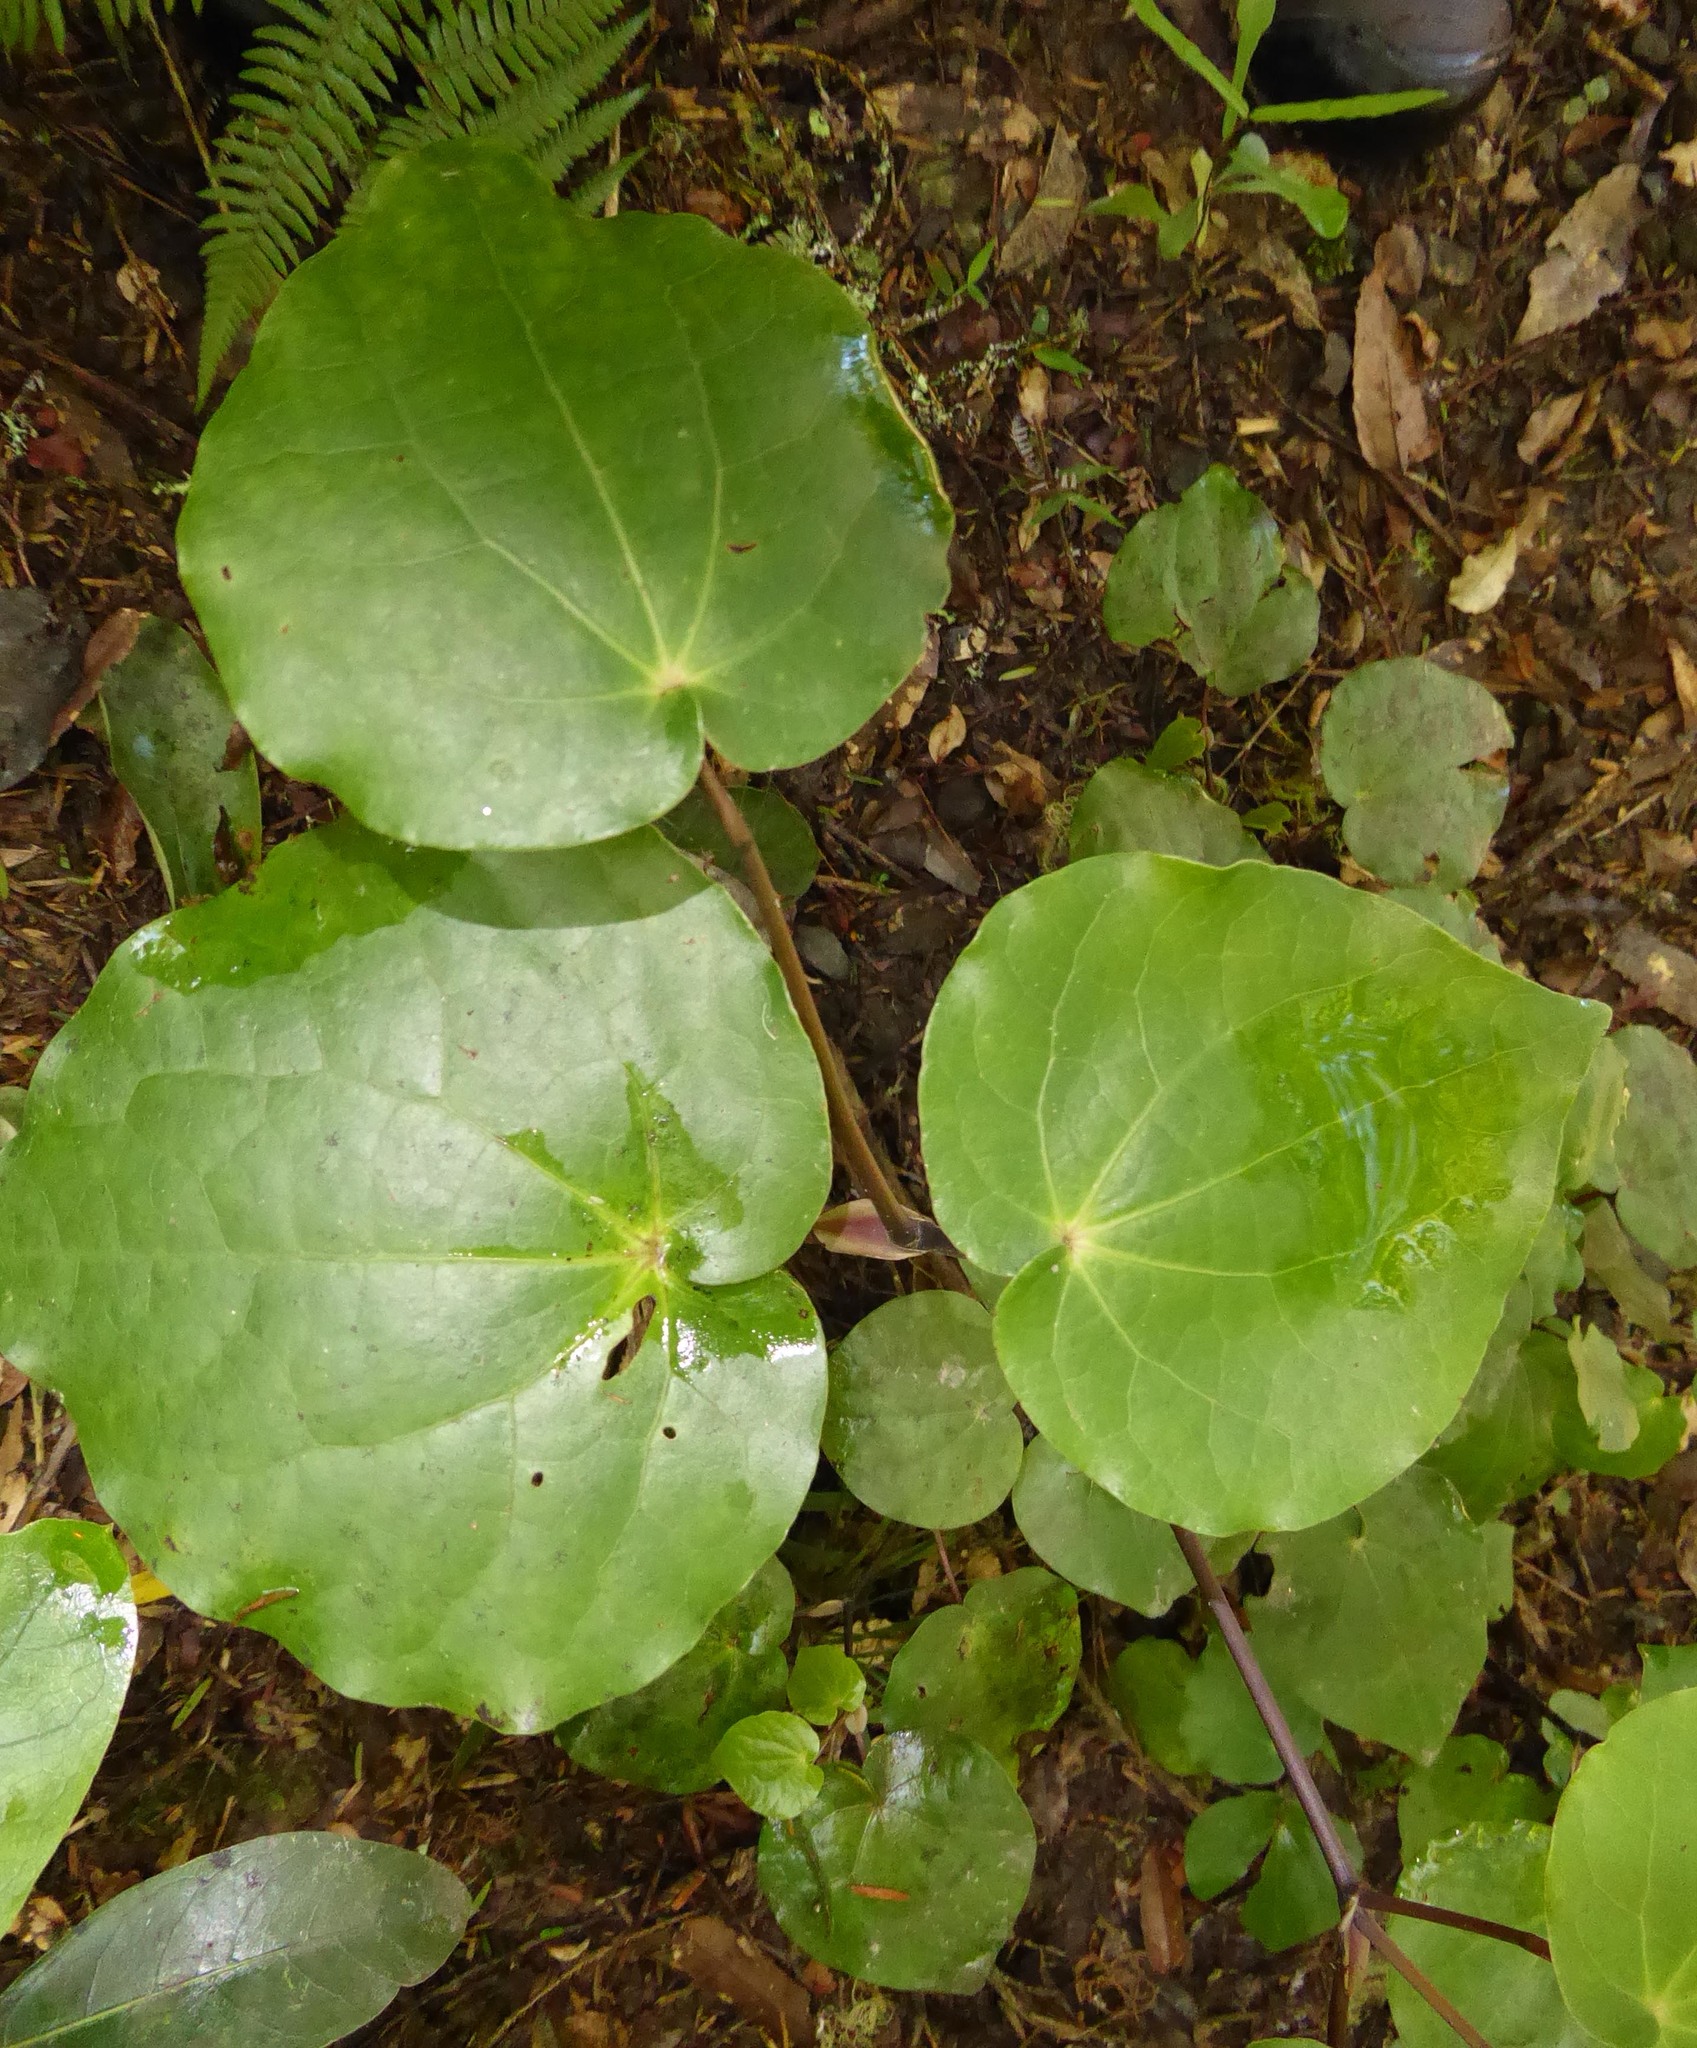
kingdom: Plantae
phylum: Tracheophyta
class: Magnoliopsida
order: Piperales
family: Piperaceae
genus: Macropiper
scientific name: Macropiper excelsum
